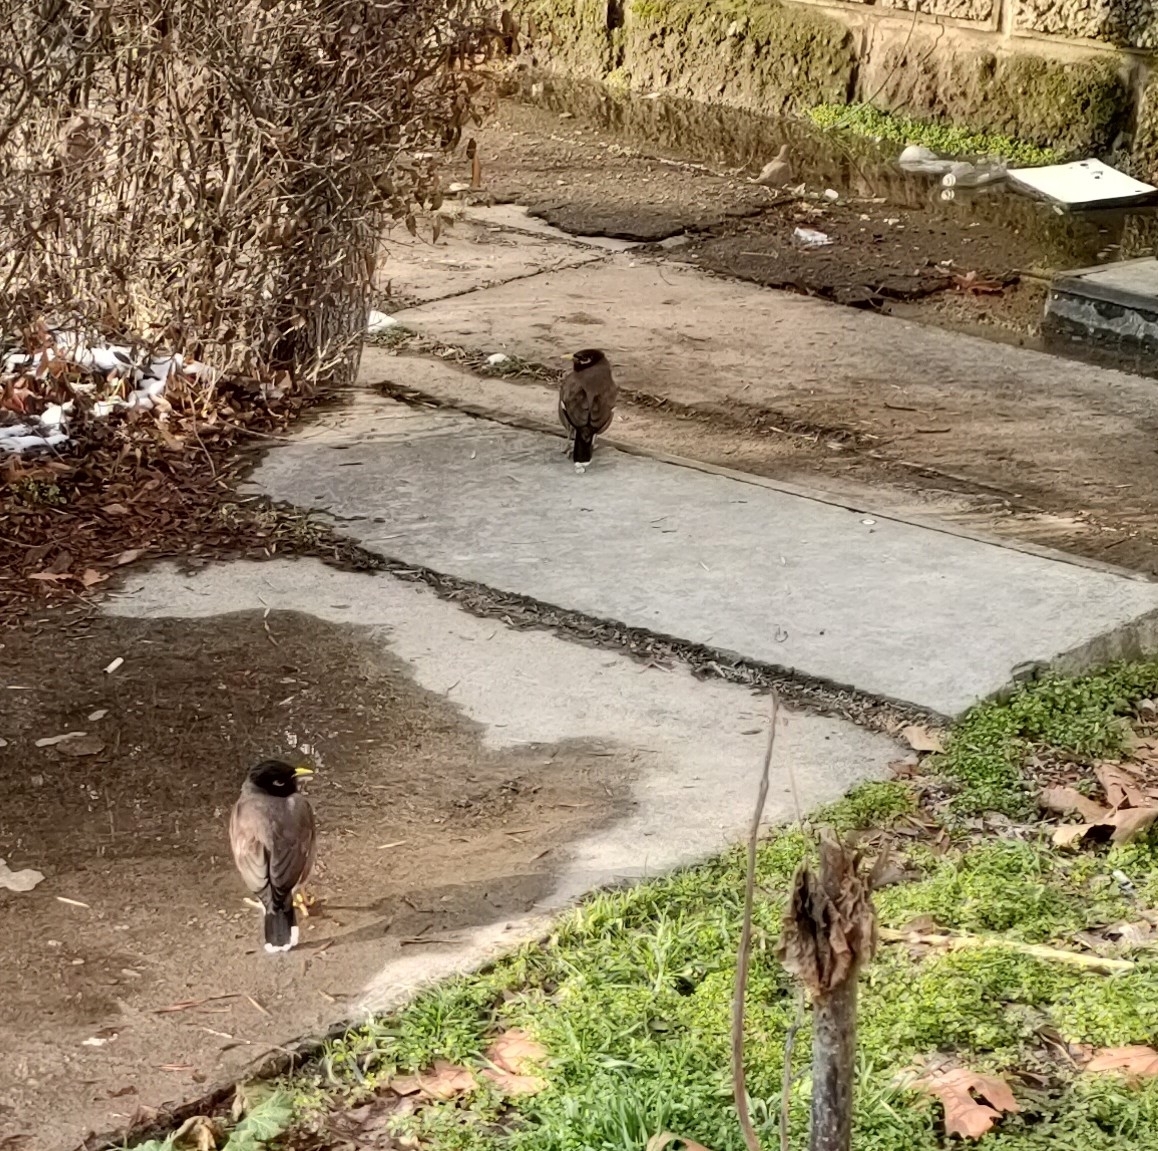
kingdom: Animalia
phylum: Chordata
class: Aves
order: Passeriformes
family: Sturnidae
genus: Acridotheres
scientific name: Acridotheres tristis
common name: Common myna
